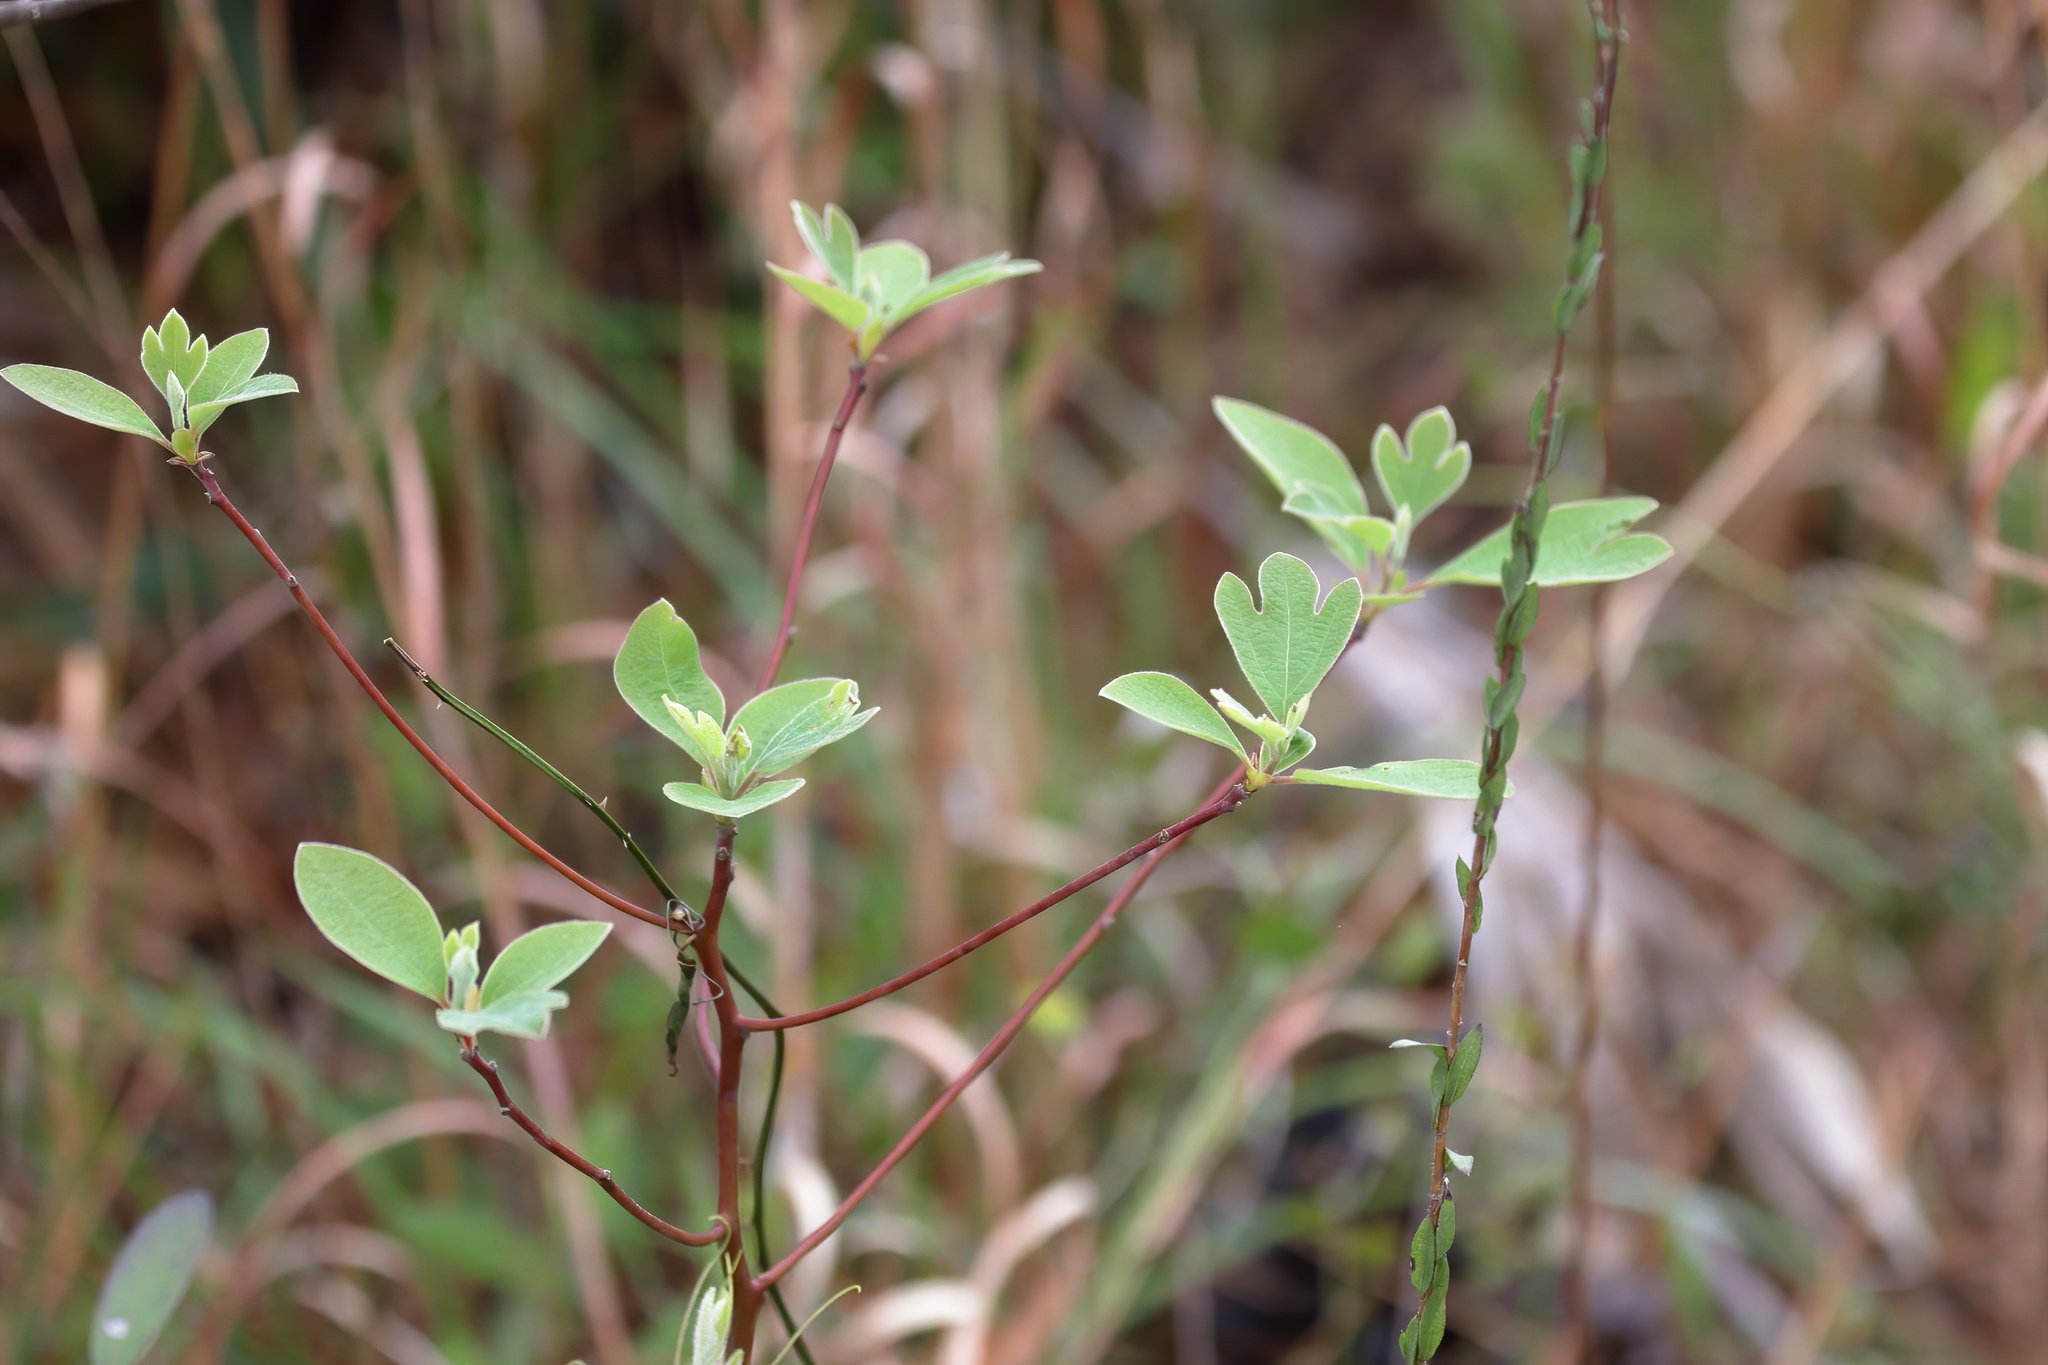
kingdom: Plantae
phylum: Tracheophyta
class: Magnoliopsida
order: Laurales
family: Lauraceae
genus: Sassafras
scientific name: Sassafras albidum
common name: Sassafras
